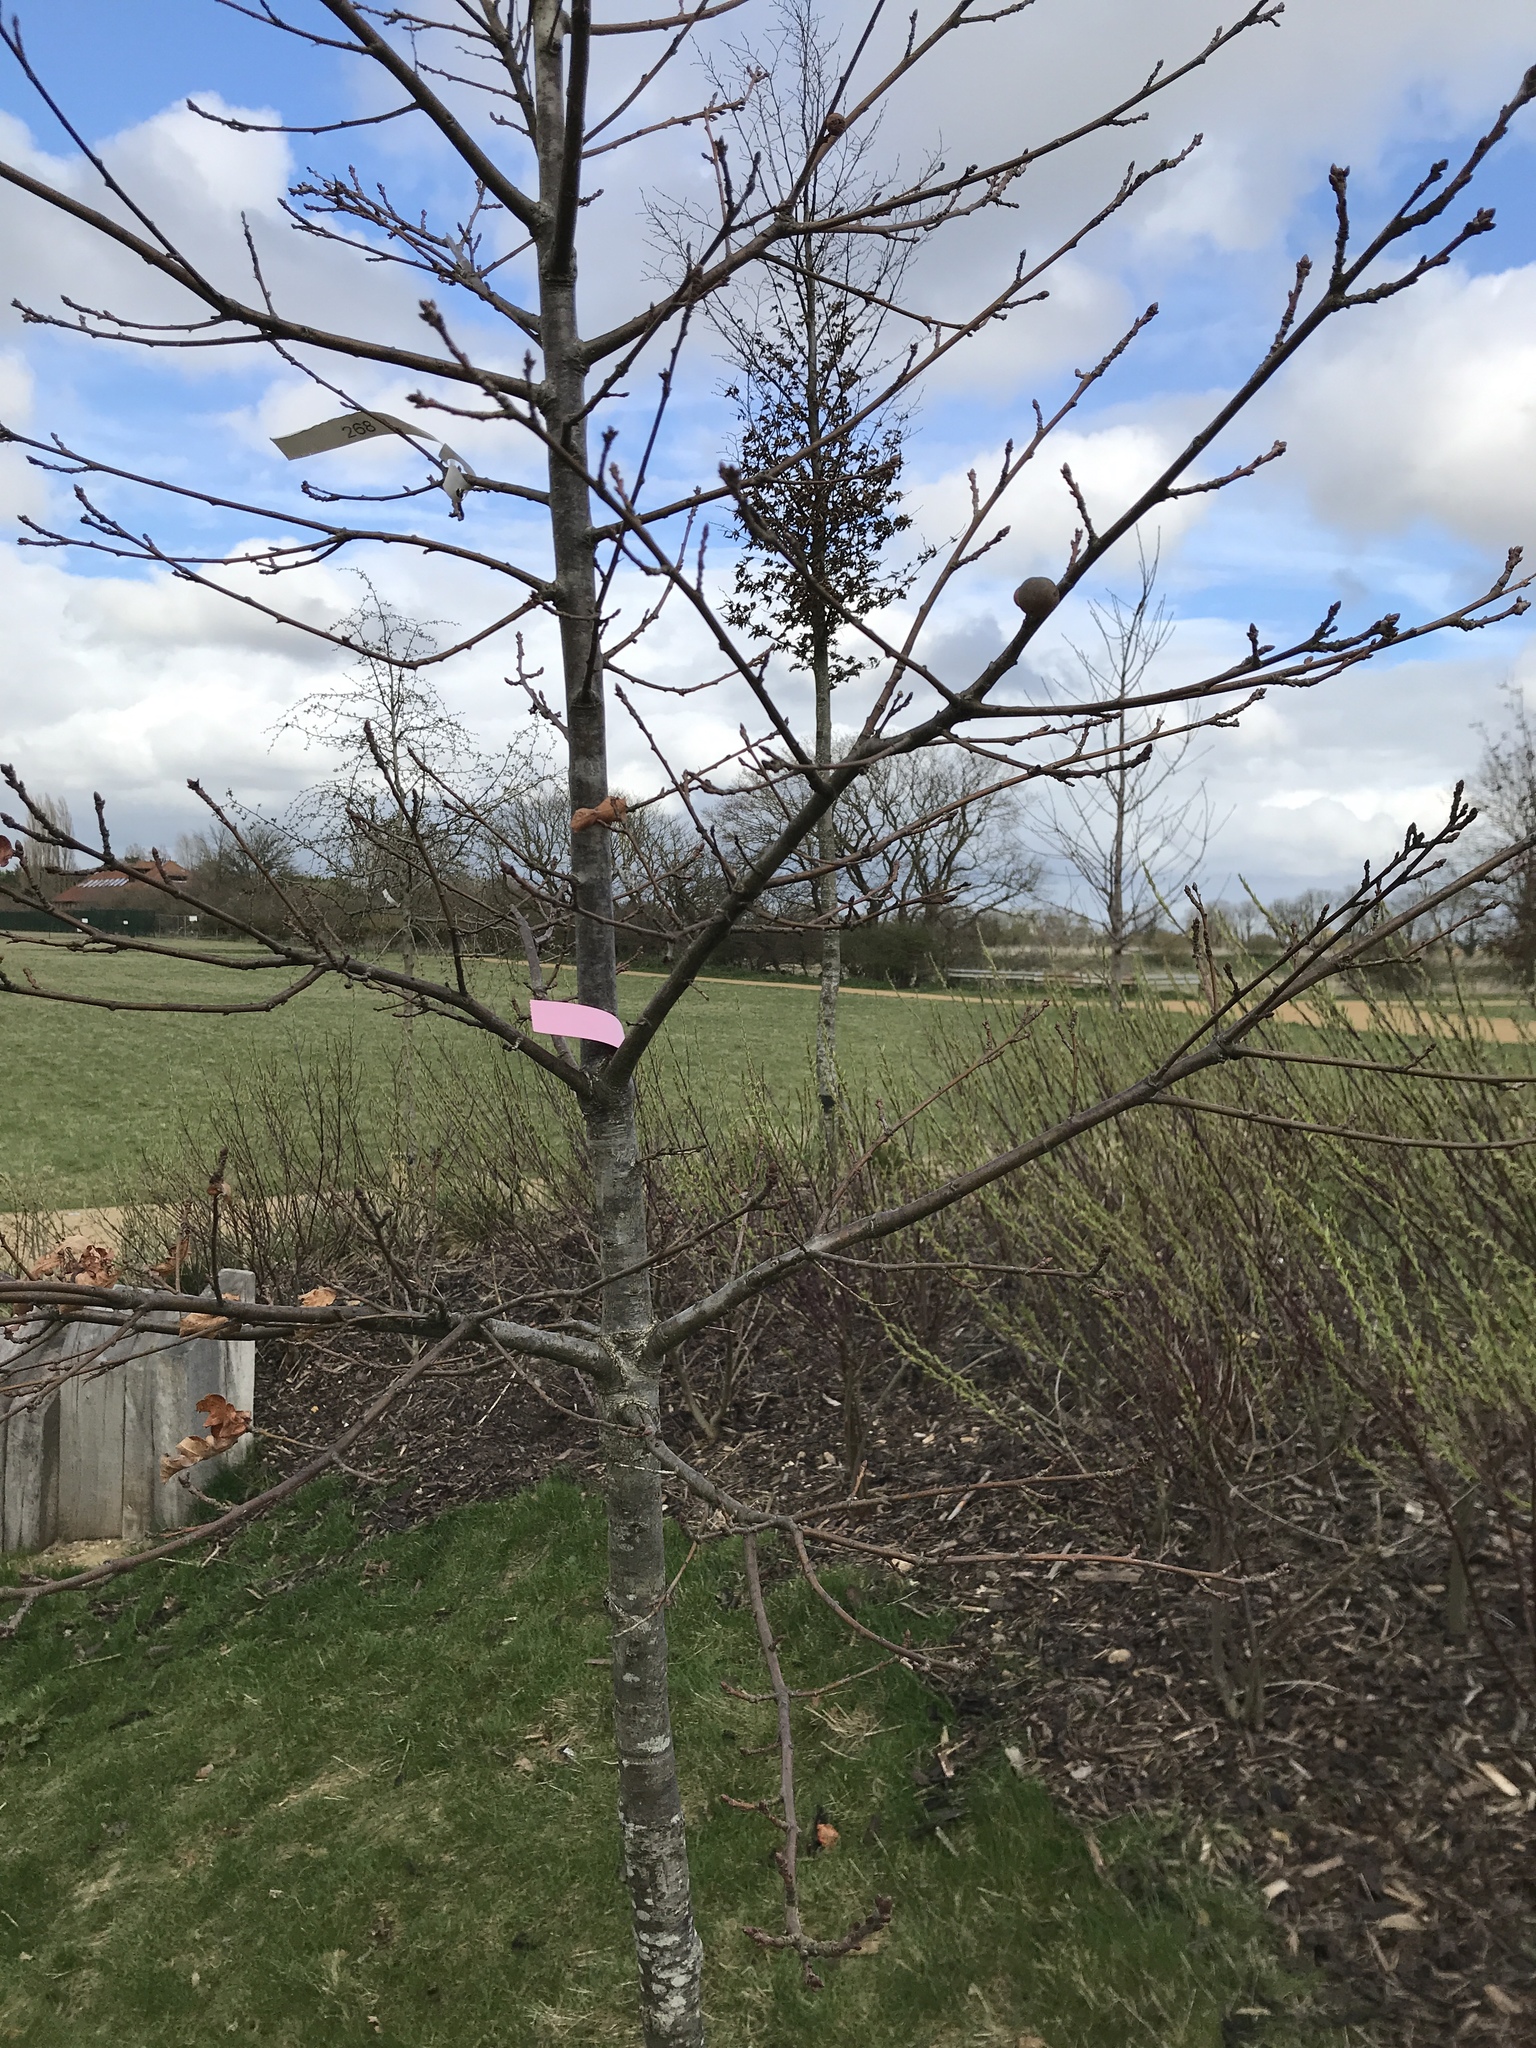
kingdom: Animalia
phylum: Arthropoda
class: Insecta
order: Hymenoptera
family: Cynipidae
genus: Andricus
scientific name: Andricus kollari
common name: Marble gall
